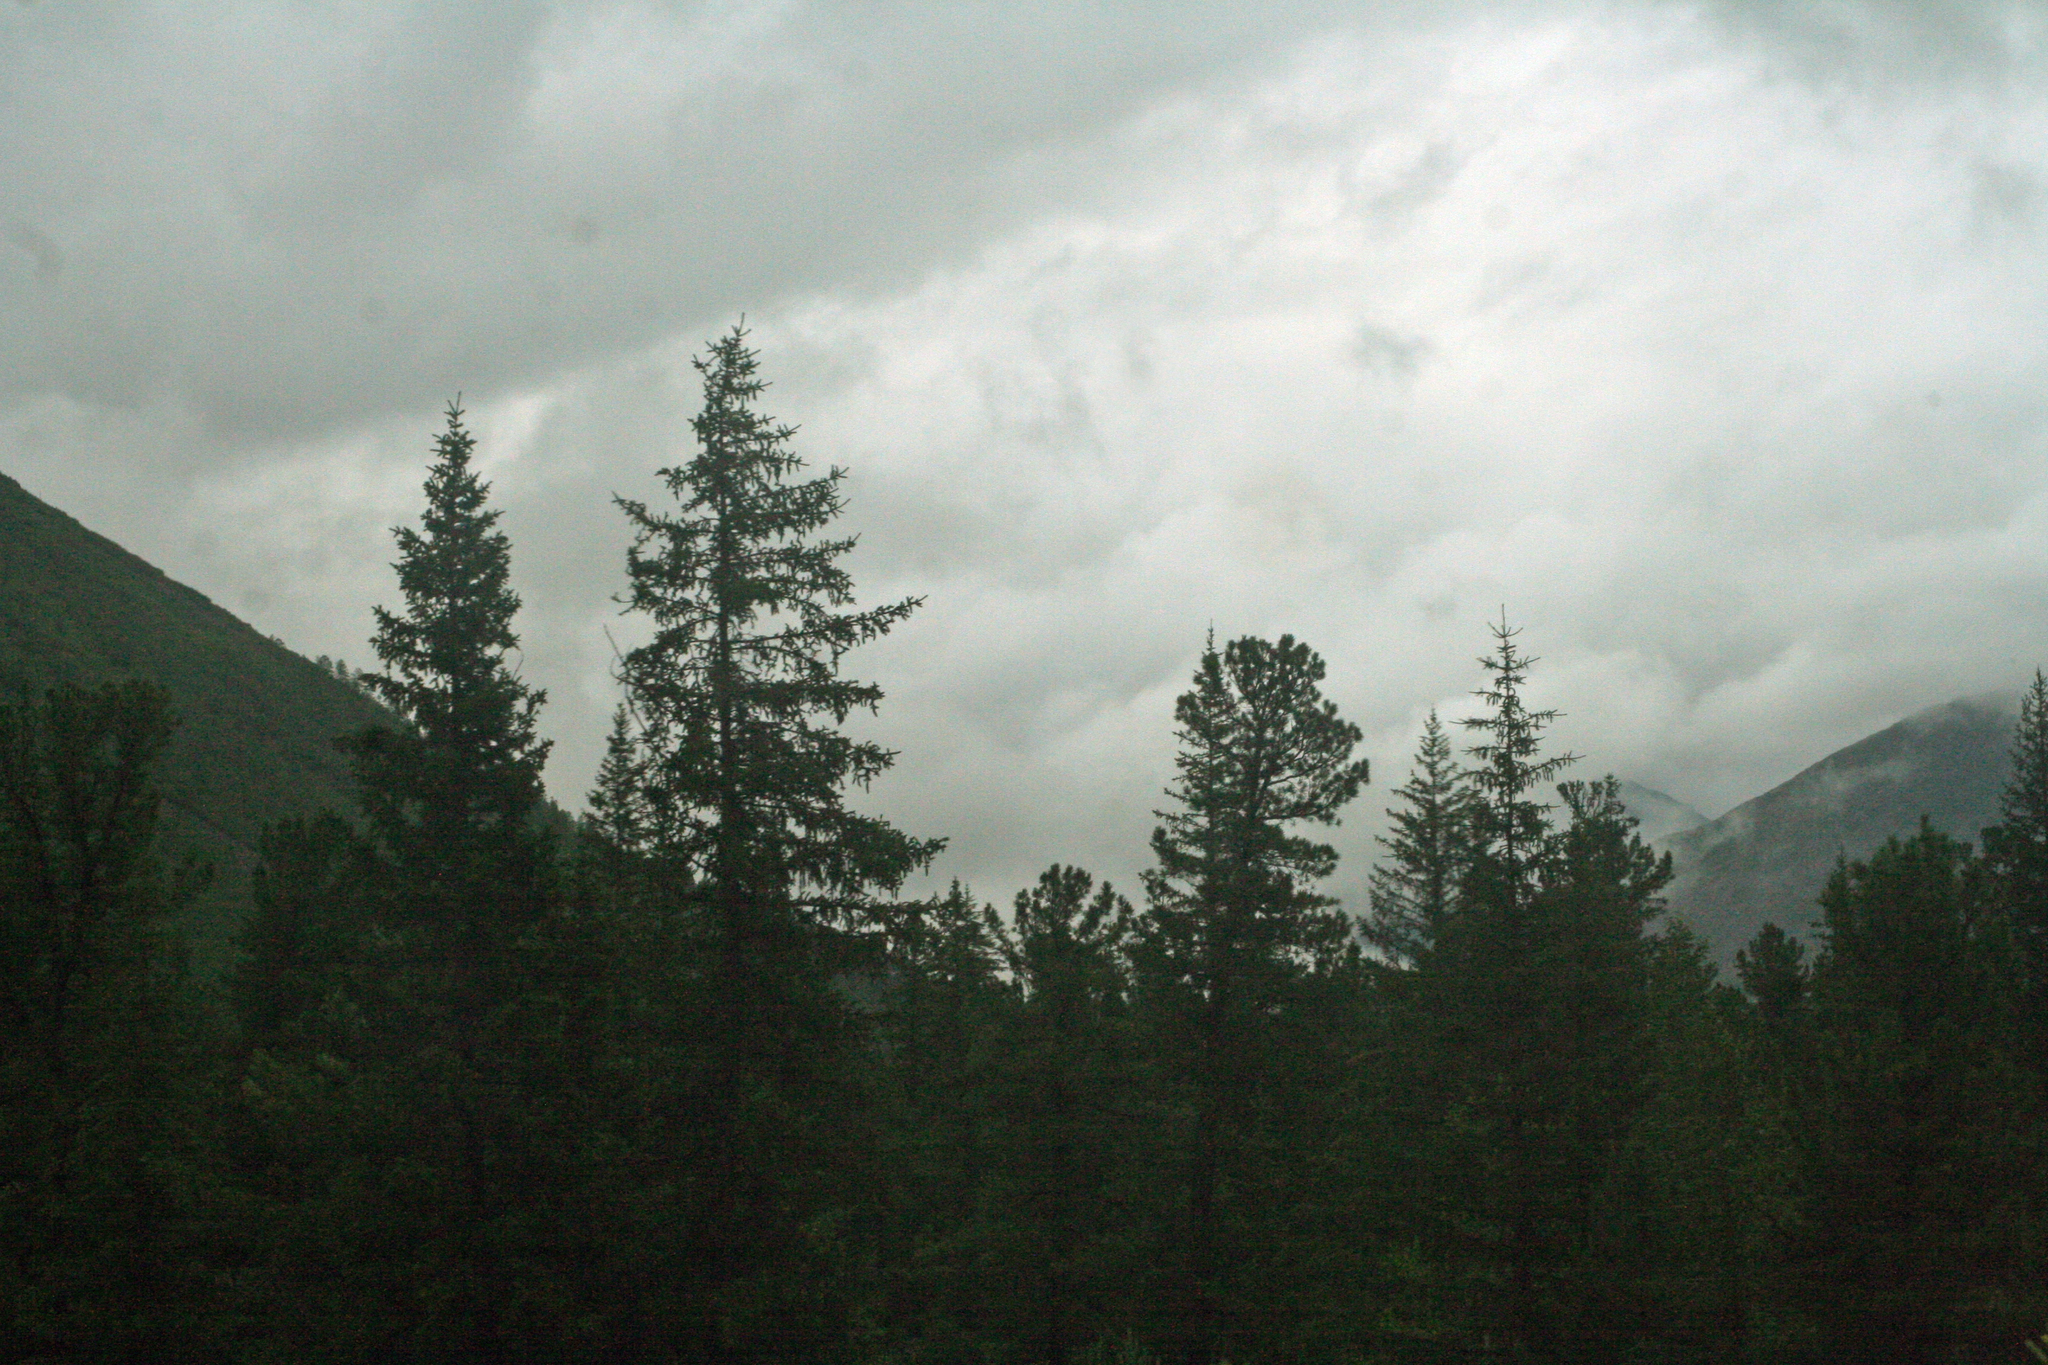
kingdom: Plantae
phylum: Tracheophyta
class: Pinopsida
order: Pinales
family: Pinaceae
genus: Pinus
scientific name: Pinus sibirica
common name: Siberian pine
